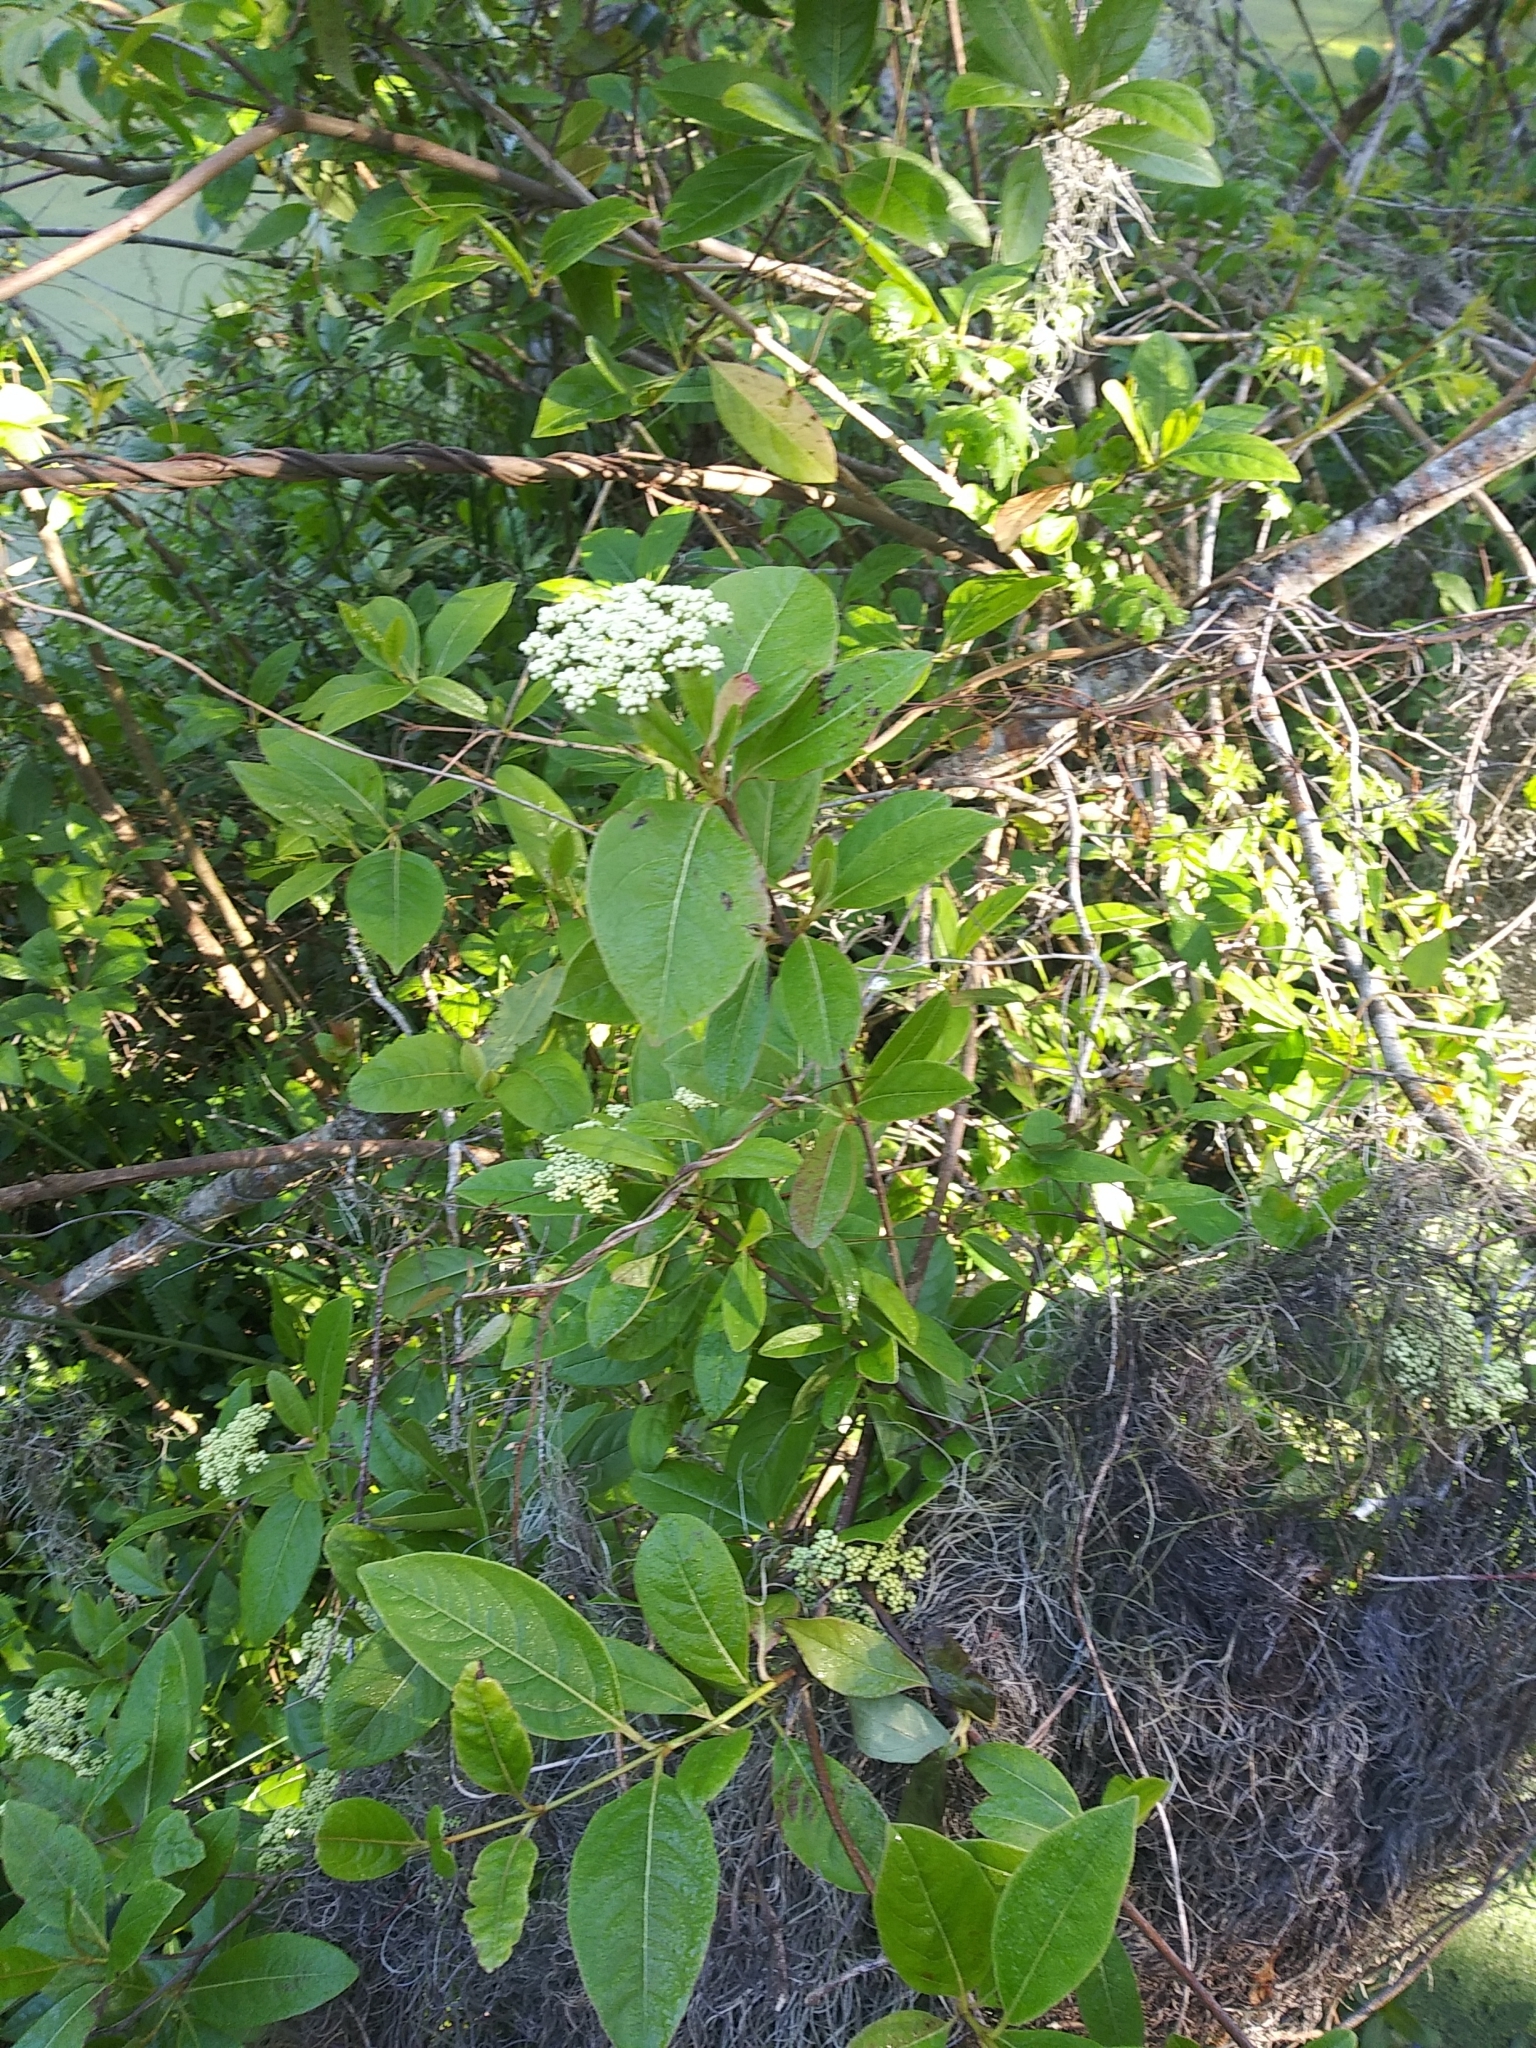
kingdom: Plantae
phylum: Tracheophyta
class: Magnoliopsida
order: Dipsacales
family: Viburnaceae
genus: Viburnum
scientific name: Viburnum nudum
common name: Possum haw
